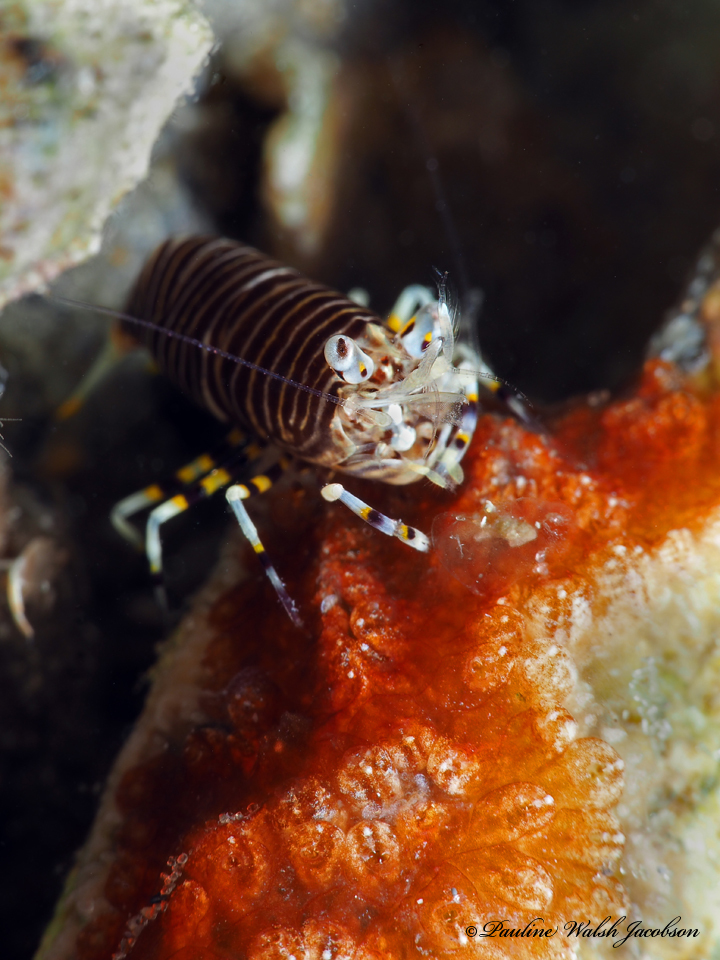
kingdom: Animalia
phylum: Arthropoda
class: Malacostraca
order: Decapoda
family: Palaemonidae
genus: Gnathophyllum
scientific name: Gnathophyllum americanum
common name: Bumblebee shrimp
